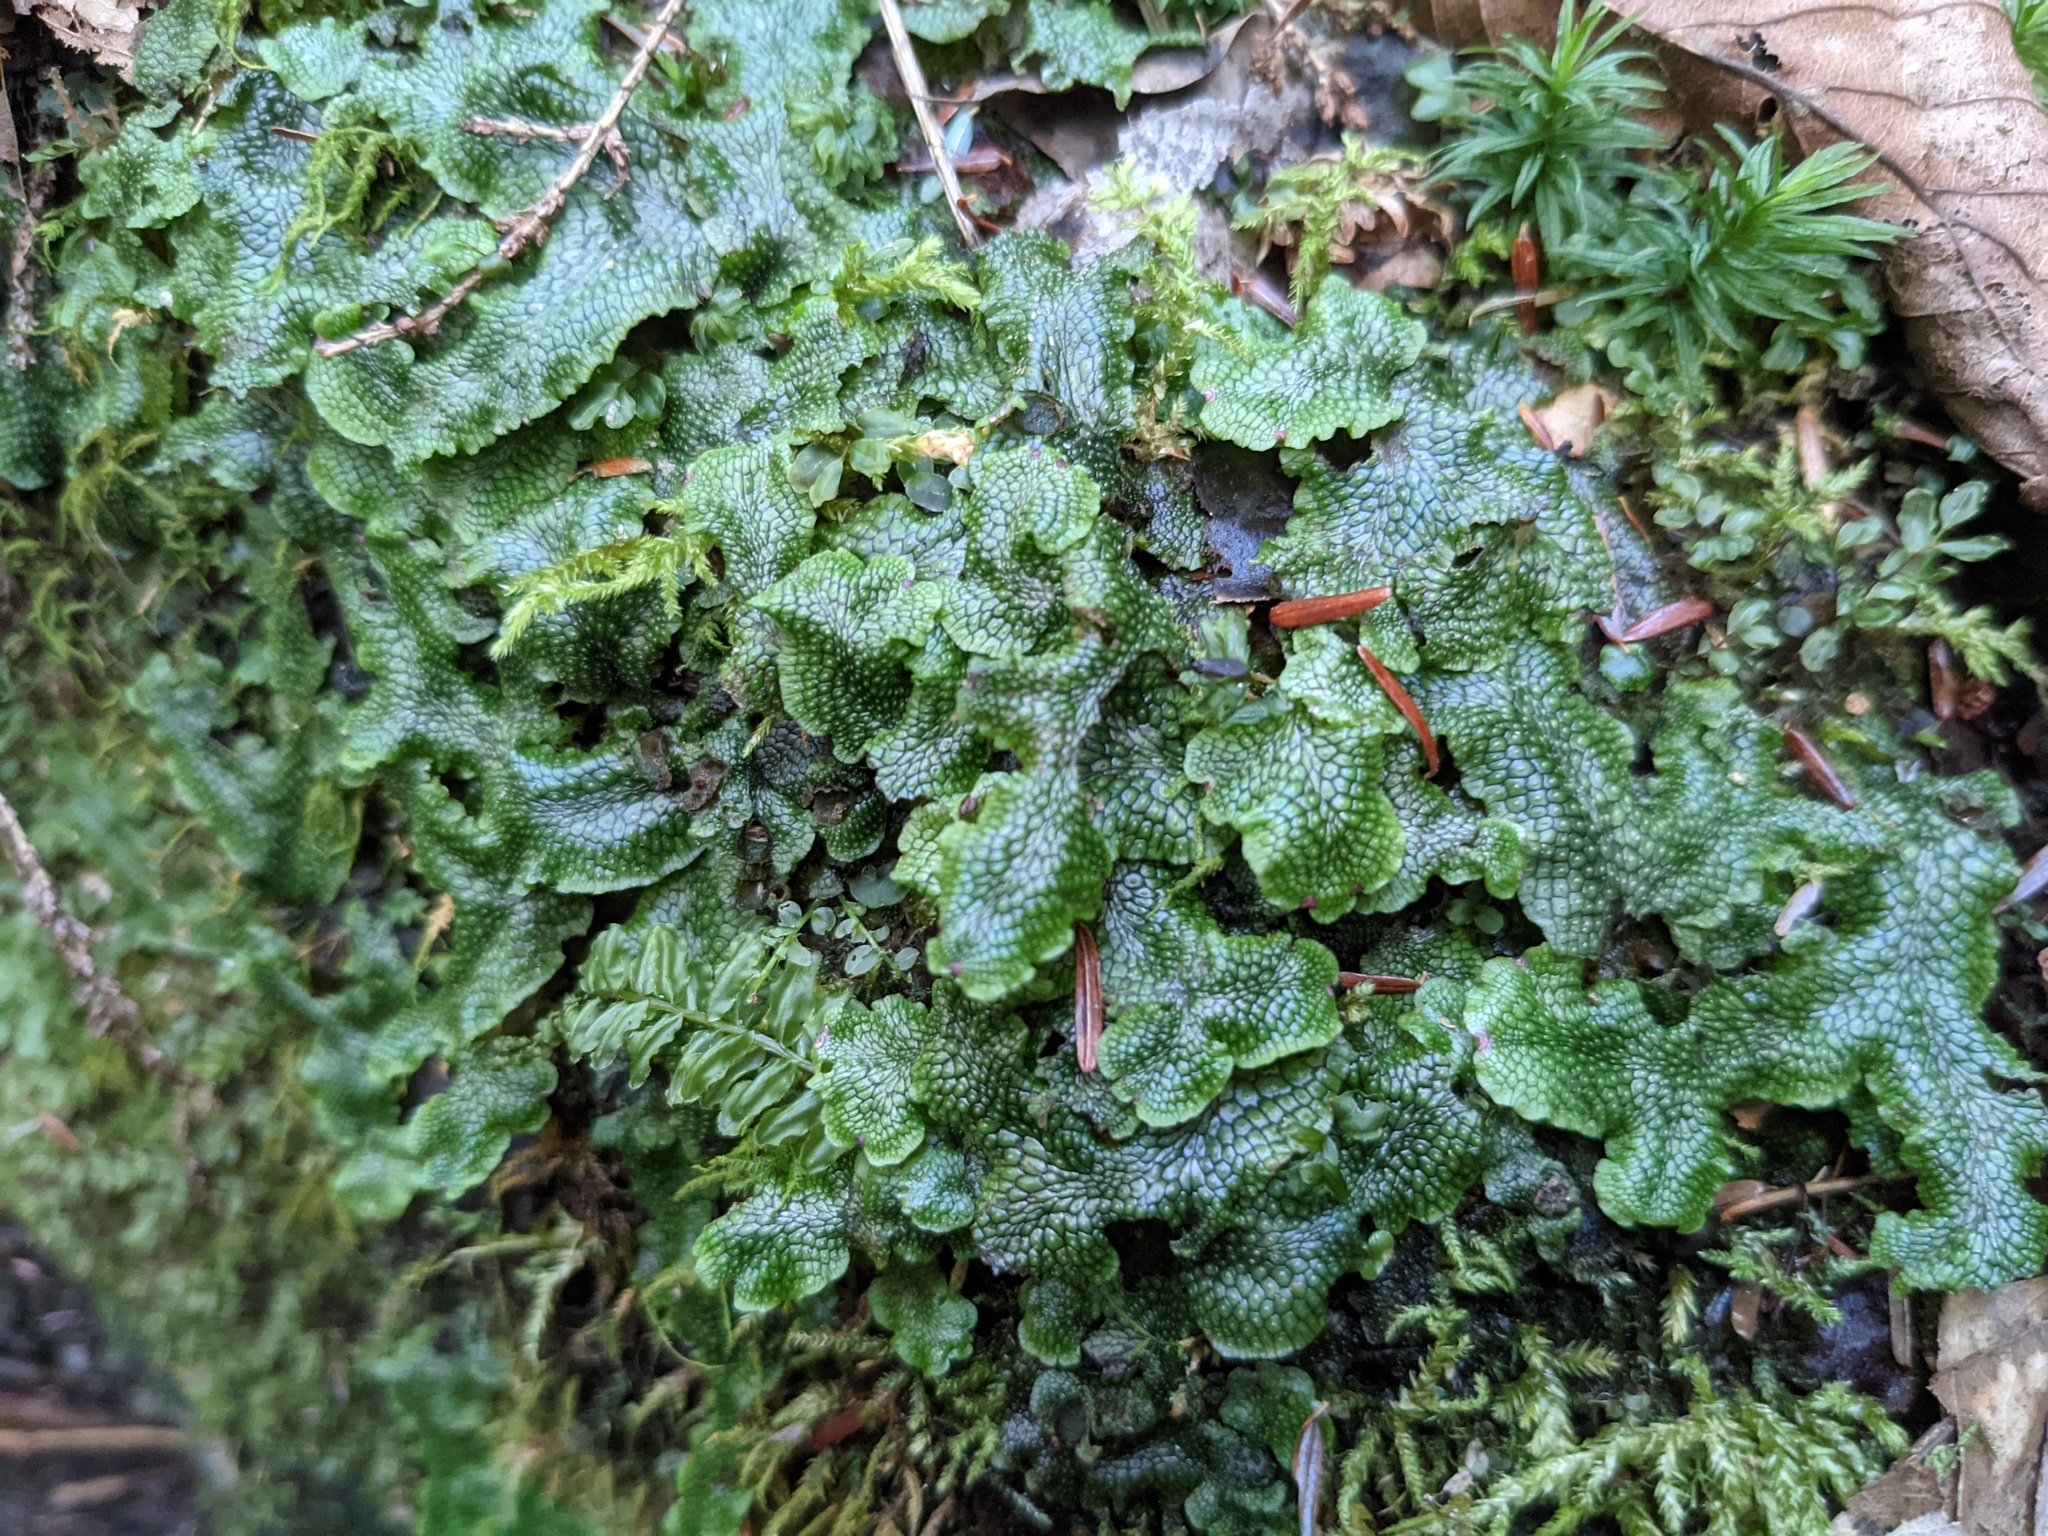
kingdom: Plantae
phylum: Marchantiophyta
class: Marchantiopsida
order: Marchantiales
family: Conocephalaceae
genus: Conocephalum
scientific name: Conocephalum salebrosum
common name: Cat-tongue liverwort
